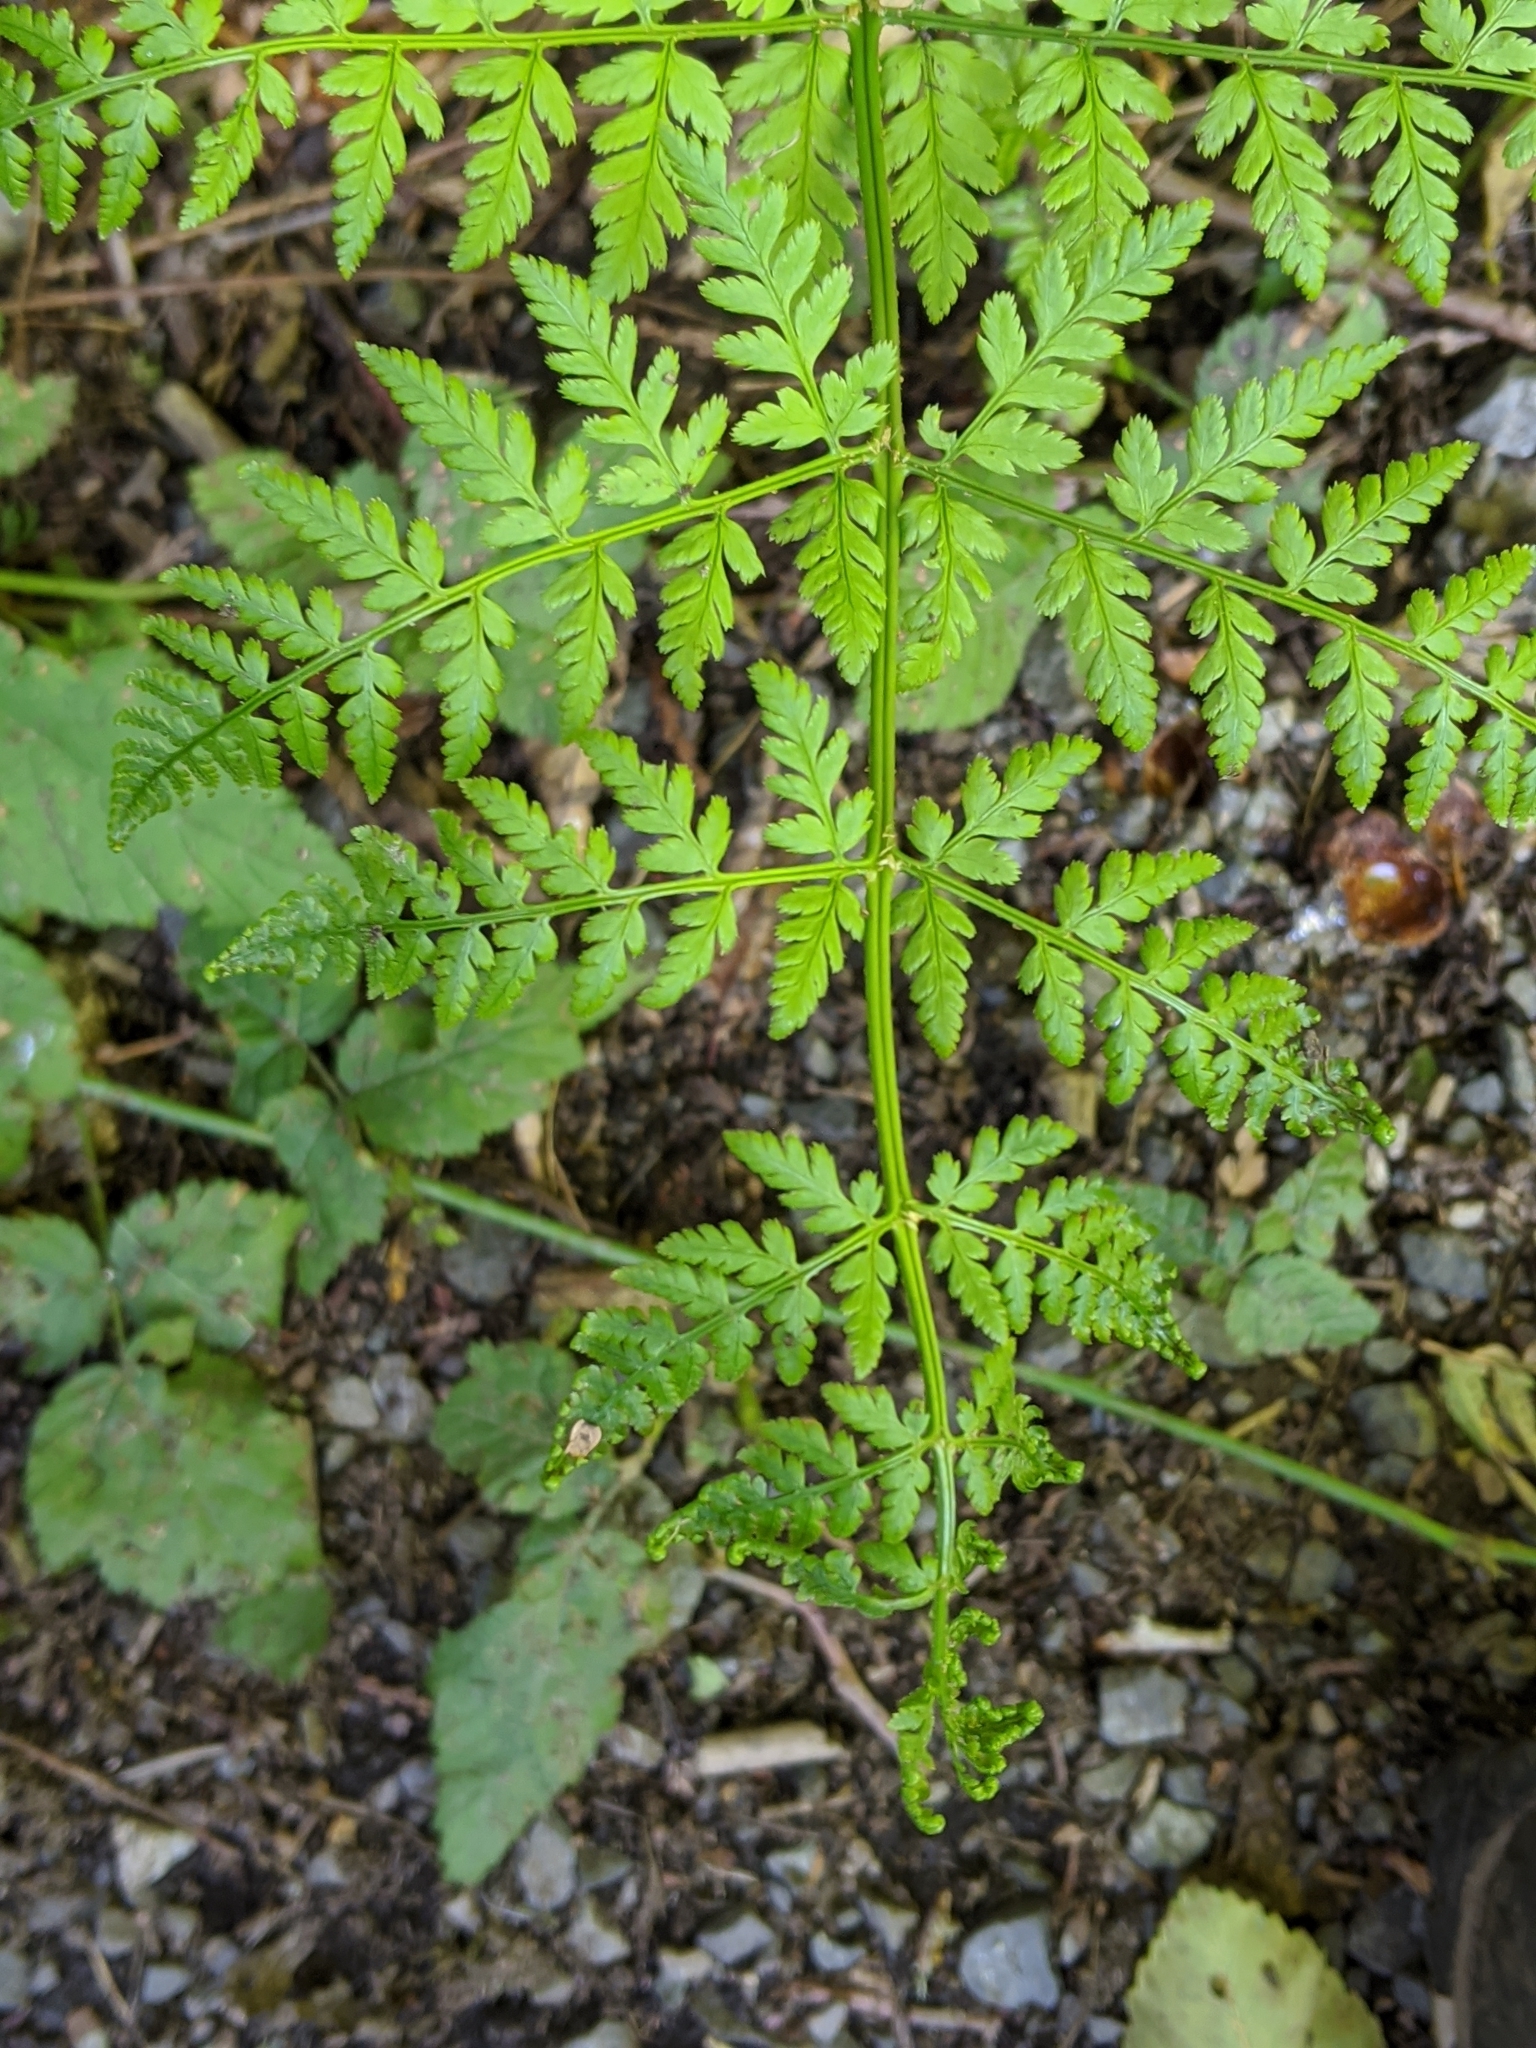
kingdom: Plantae
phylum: Tracheophyta
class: Polypodiopsida
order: Polypodiales
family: Dryopteridaceae
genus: Dryopteris
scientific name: Dryopteris expansa
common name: Northern buckler fern
